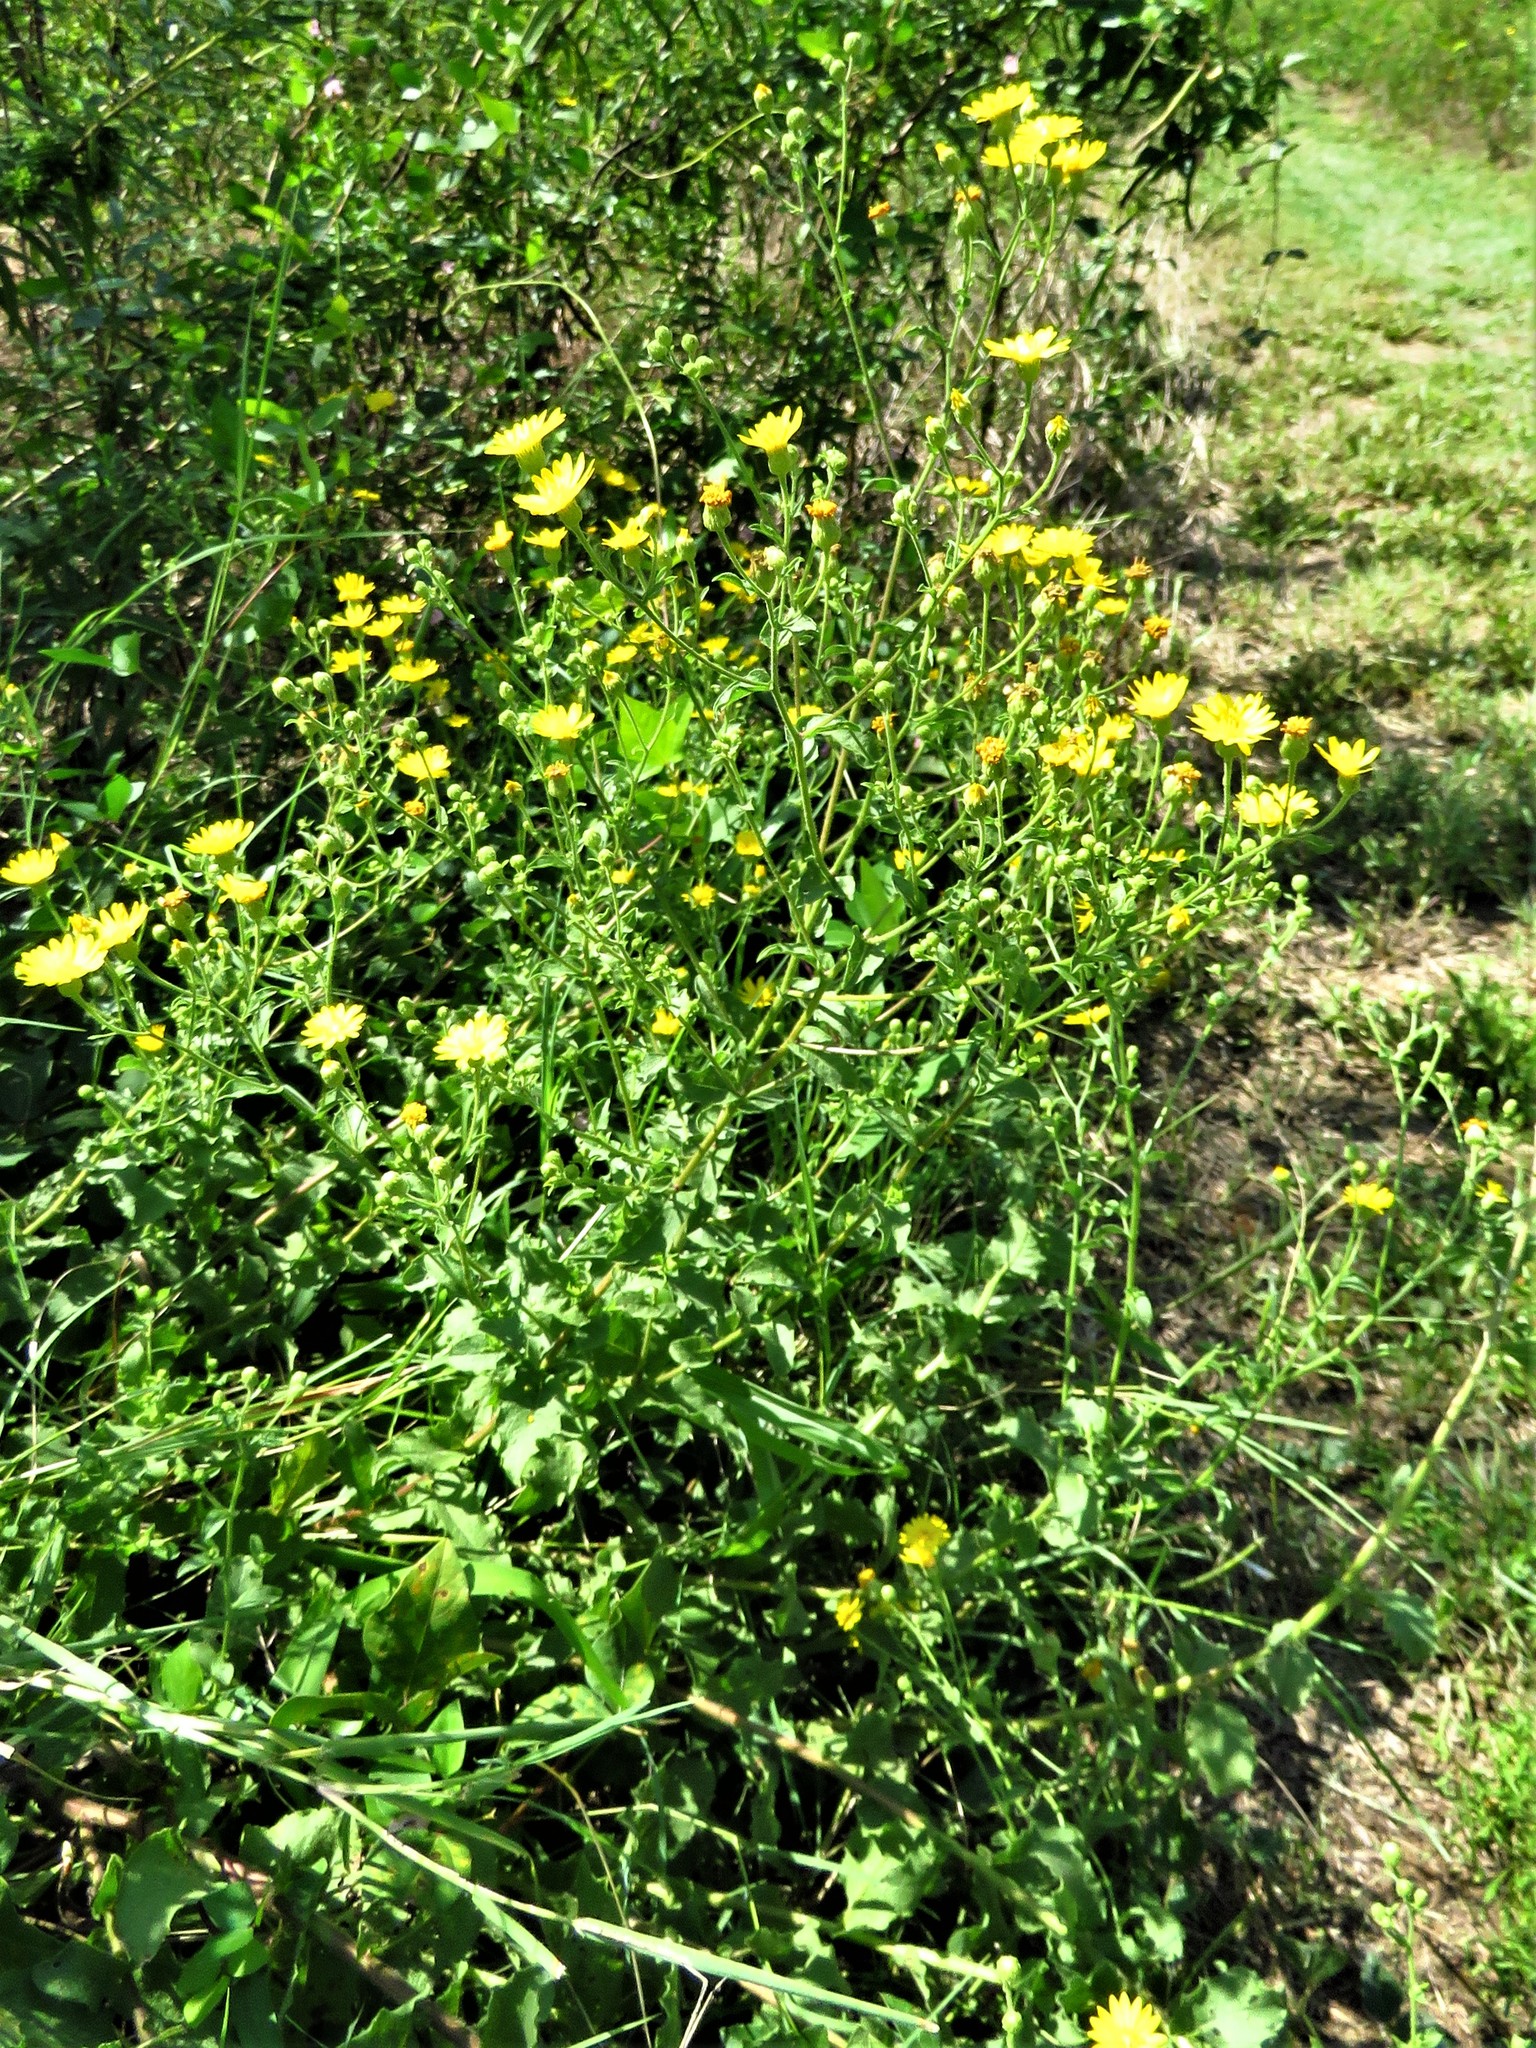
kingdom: Plantae
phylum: Tracheophyta
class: Magnoliopsida
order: Asterales
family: Asteraceae
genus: Heterotheca
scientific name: Heterotheca subaxillaris
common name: Camphorweed
